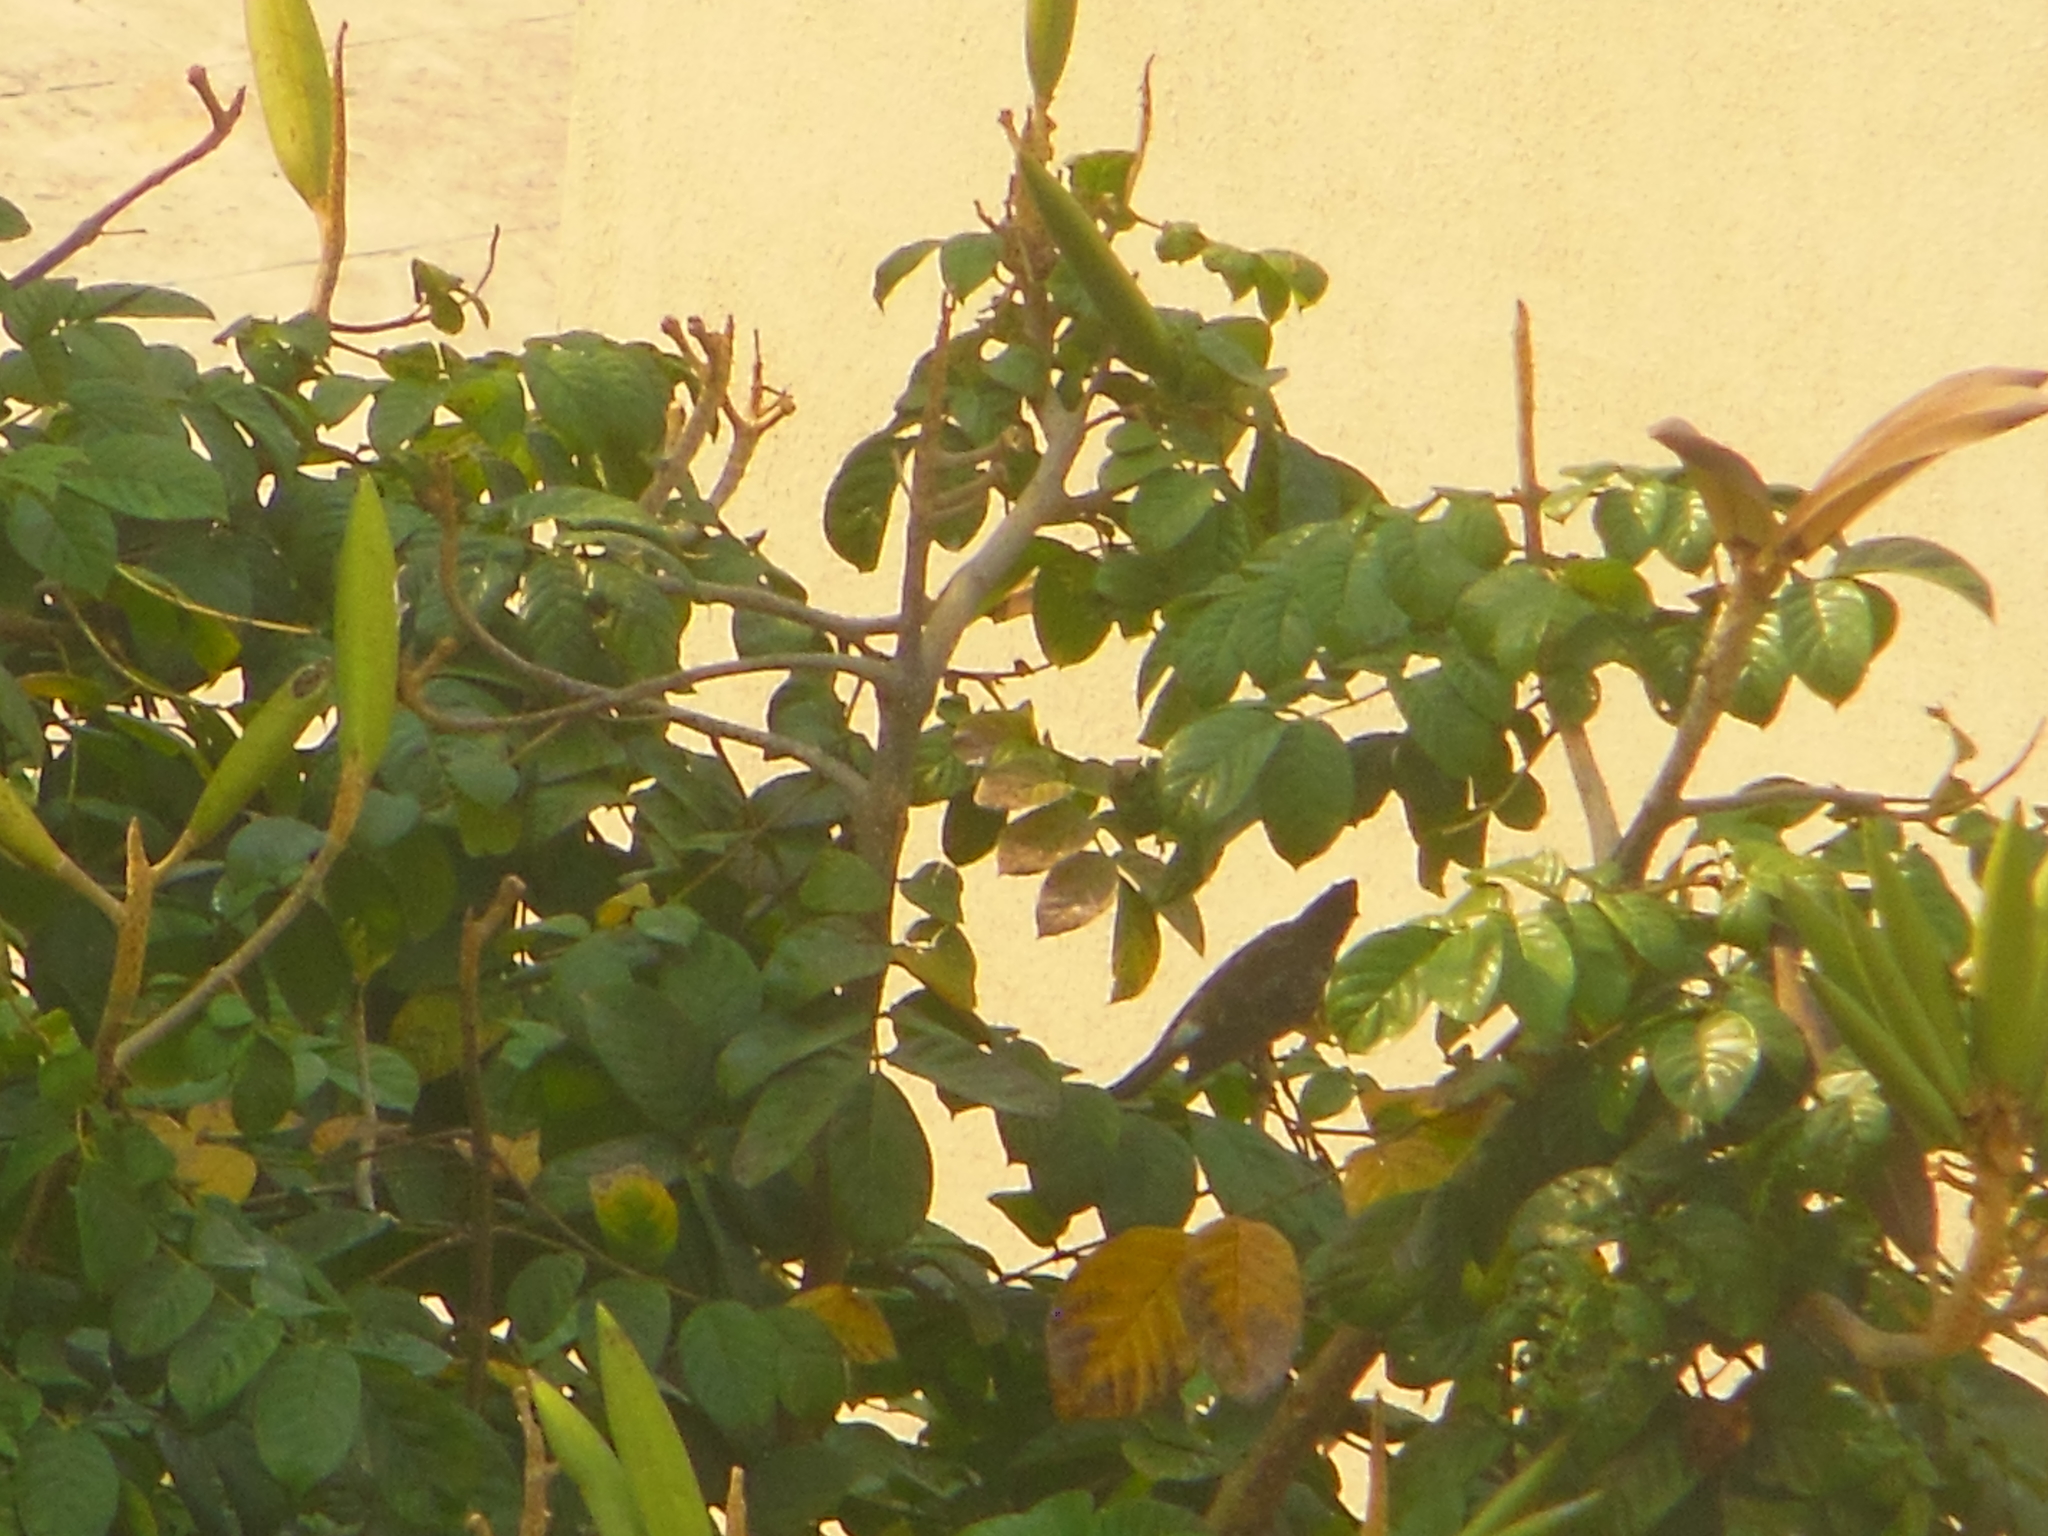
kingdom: Animalia
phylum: Chordata
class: Aves
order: Passeriformes
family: Pycnonotidae
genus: Pycnonotus
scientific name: Pycnonotus cafer
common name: Red-vented bulbul
